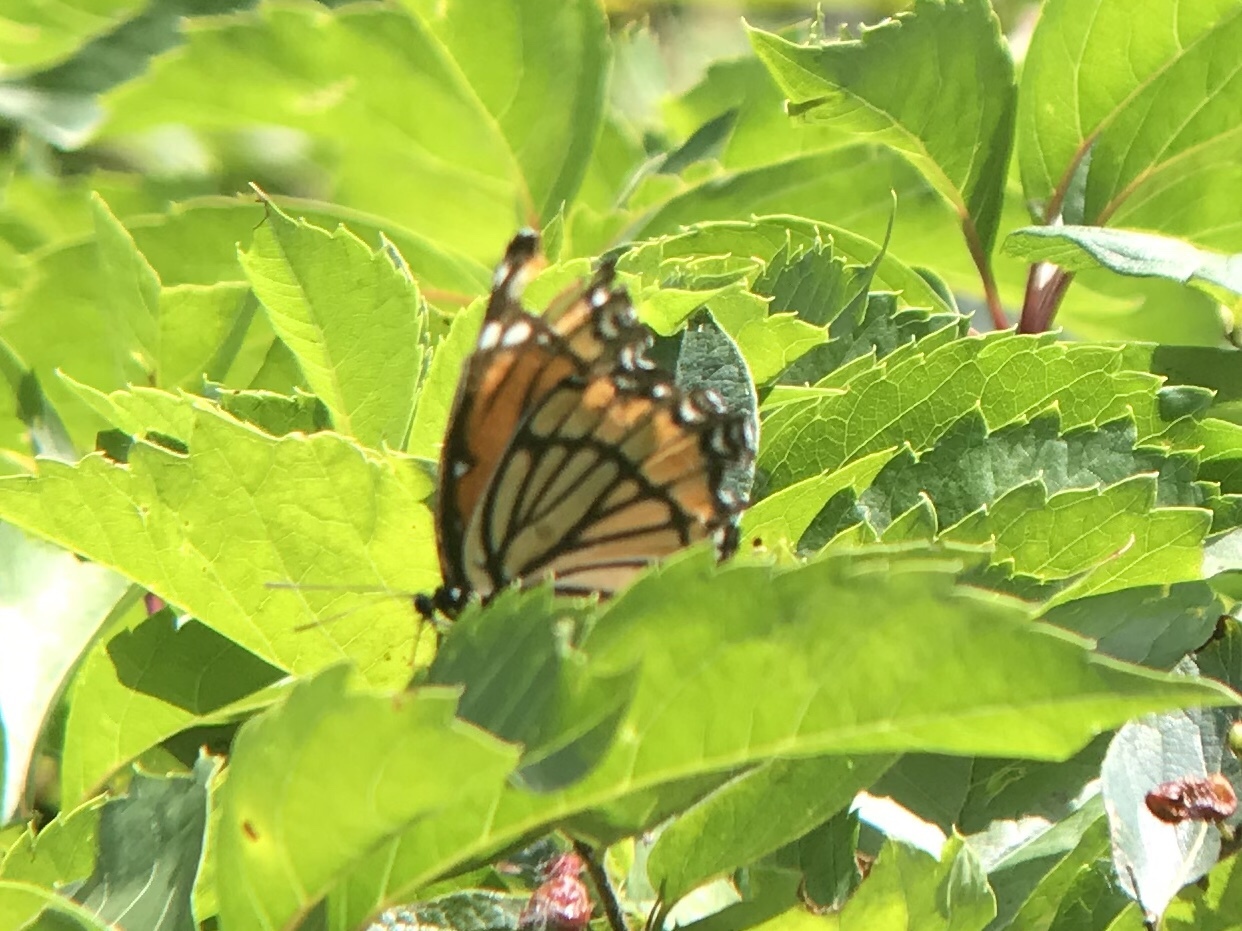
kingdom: Animalia
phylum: Arthropoda
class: Insecta
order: Lepidoptera
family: Nymphalidae
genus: Limenitis
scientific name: Limenitis archippus
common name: Viceroy
